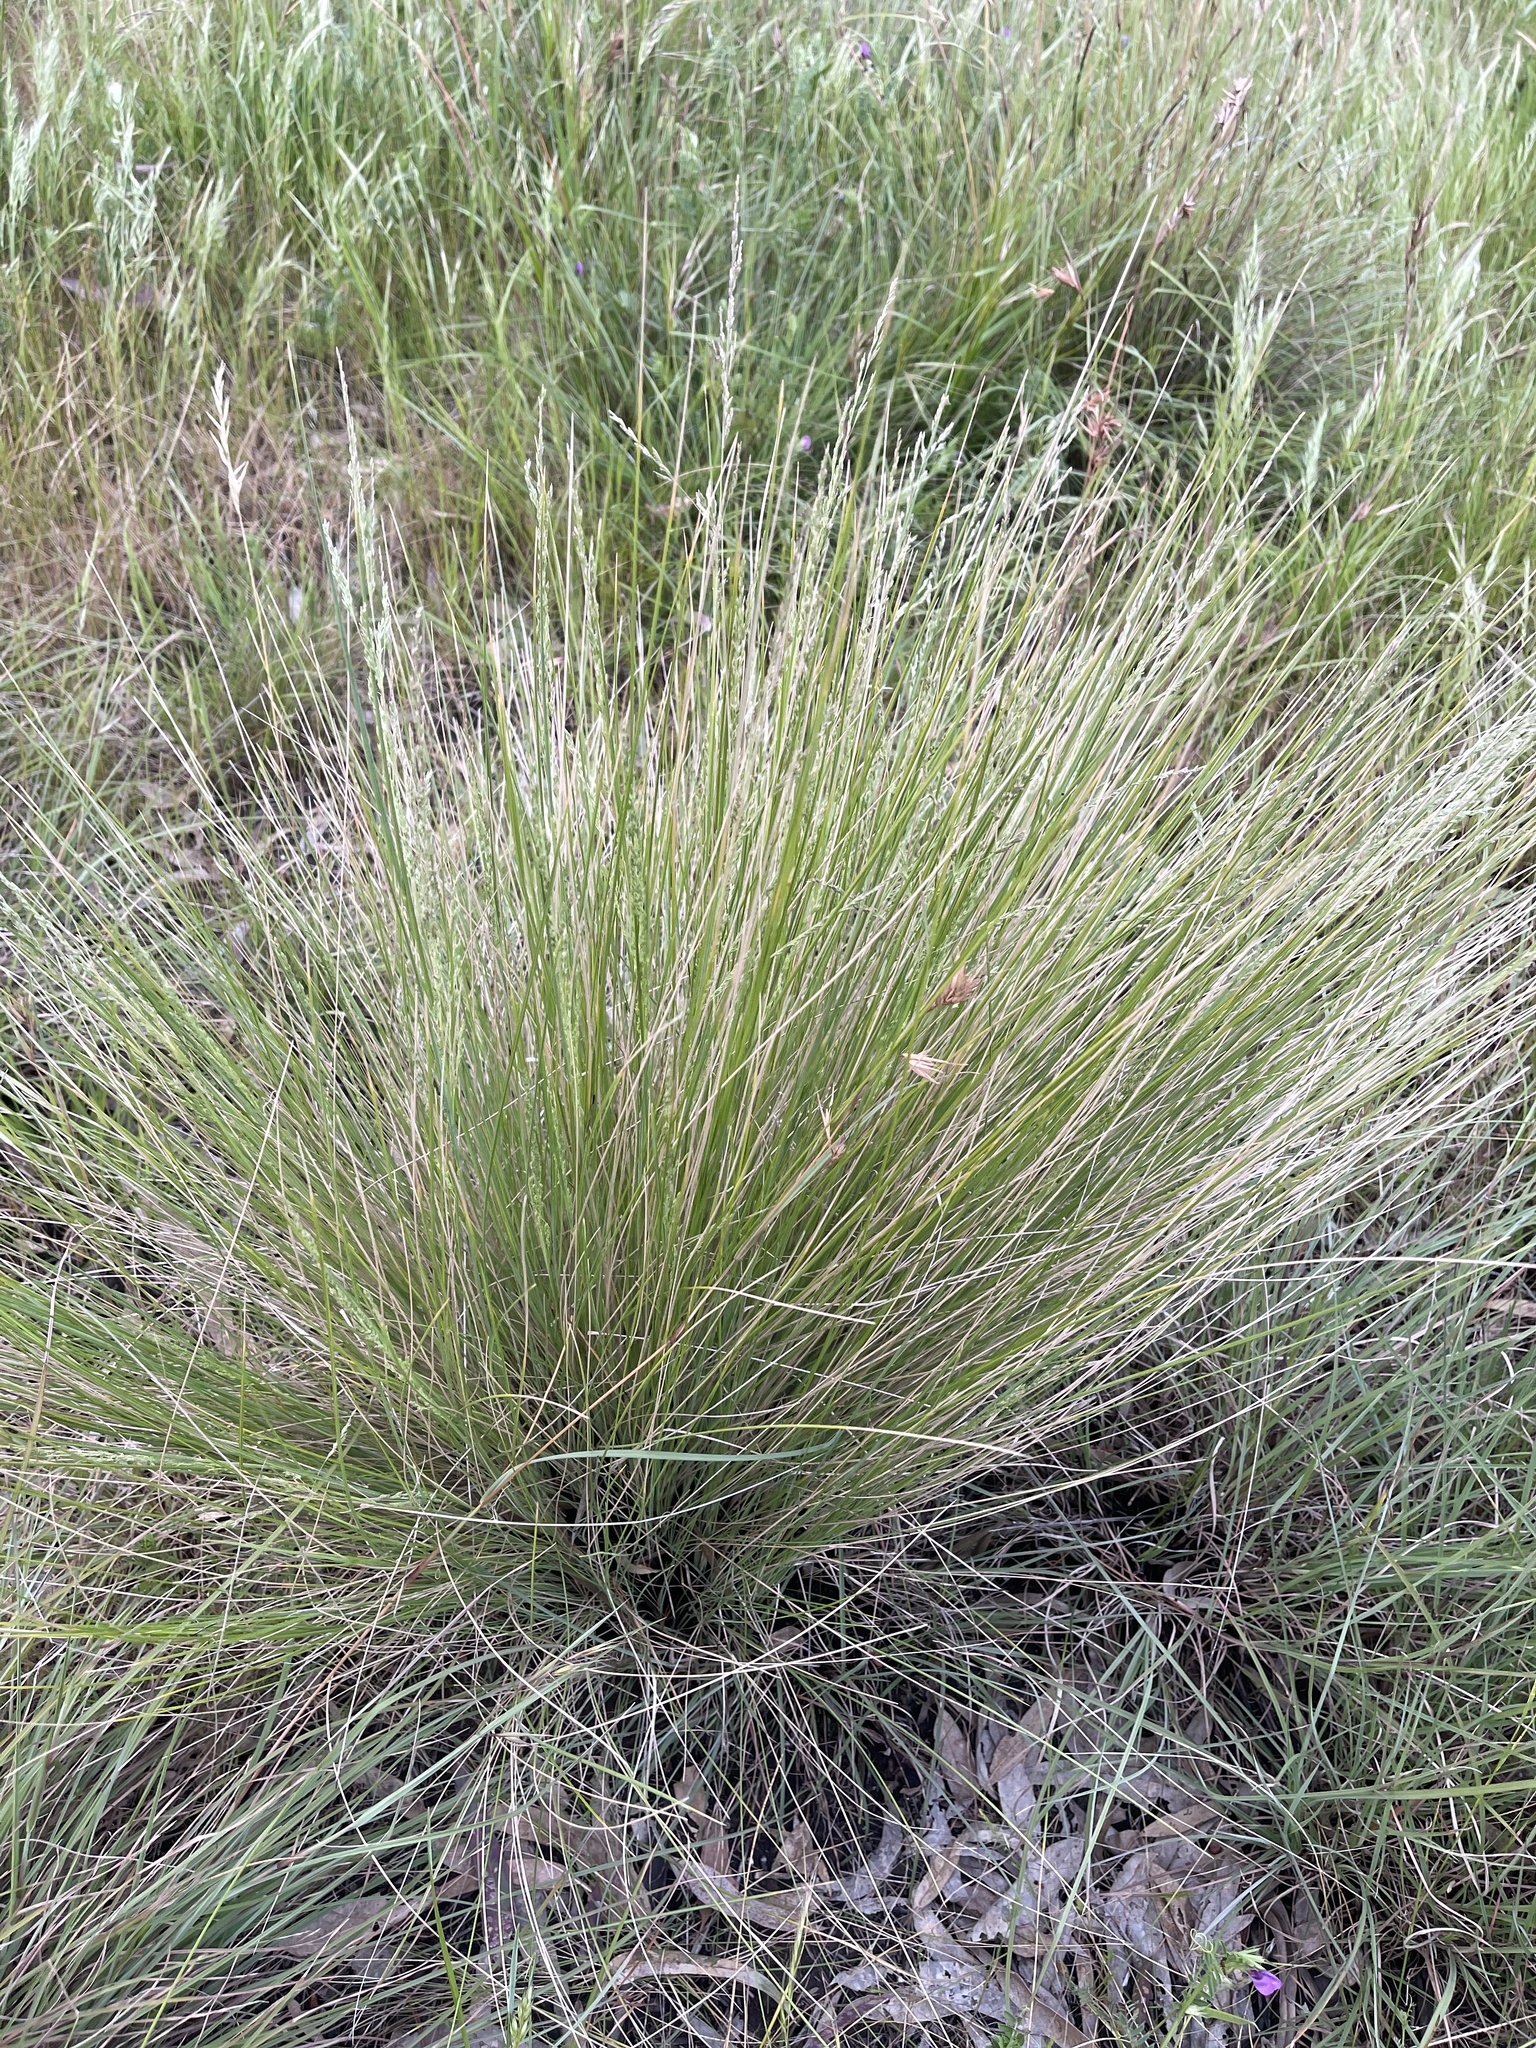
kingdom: Plantae
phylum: Tracheophyta
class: Liliopsida
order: Poales
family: Poaceae
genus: Poa
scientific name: Poa labillardierei
